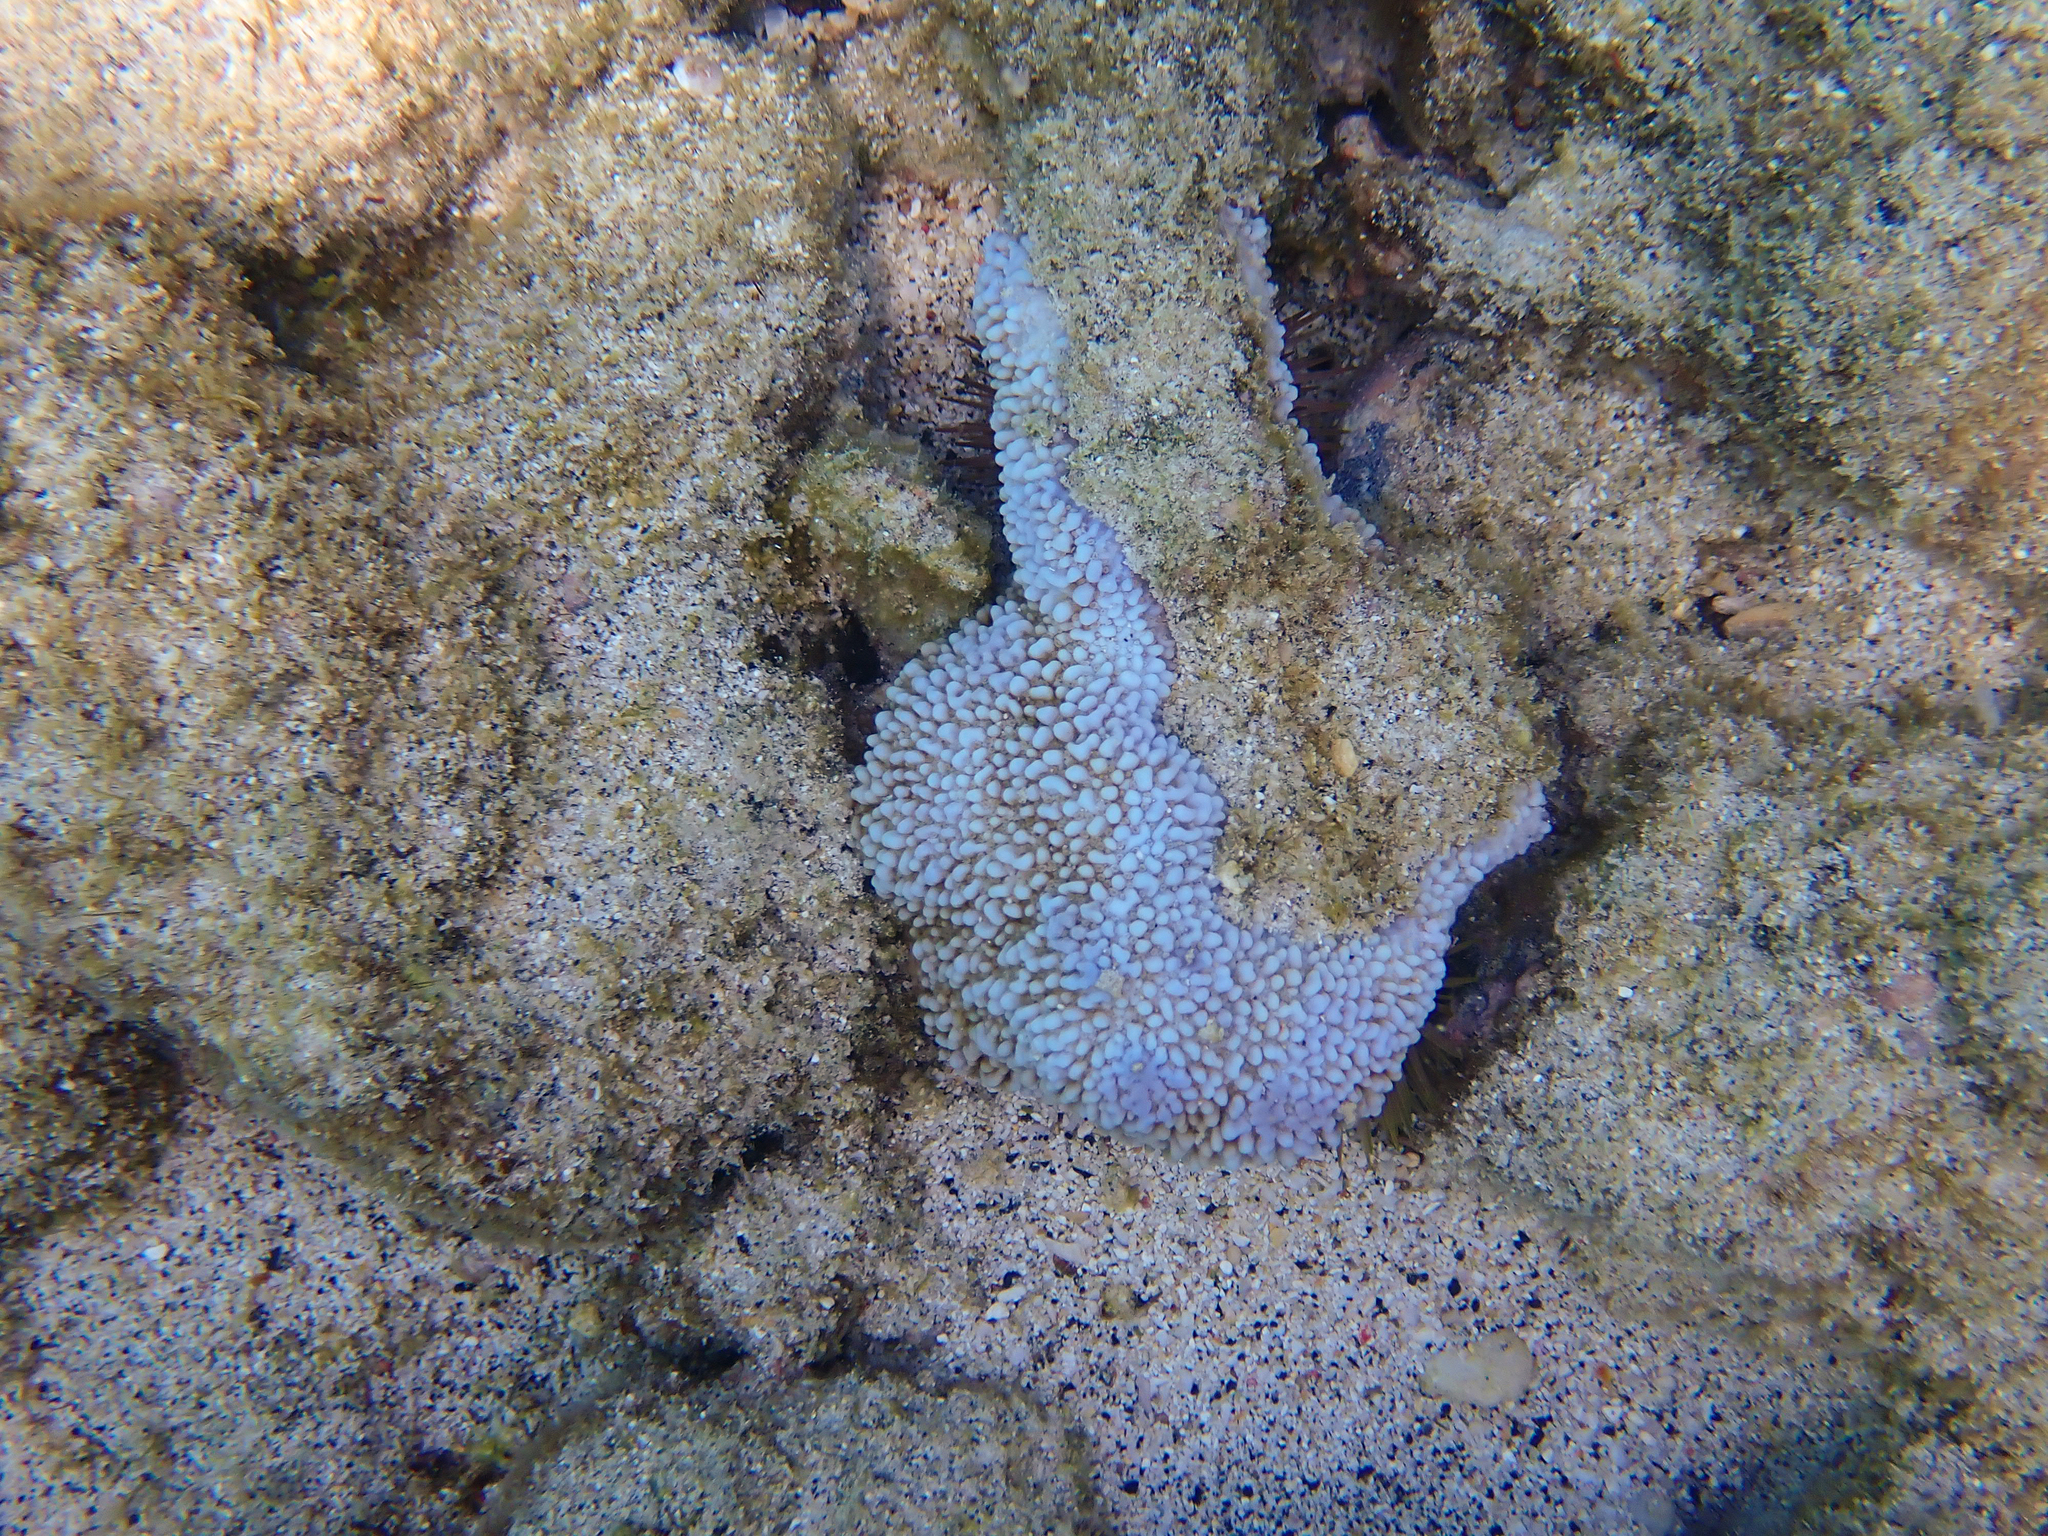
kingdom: Animalia
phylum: Cnidaria
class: Anthozoa
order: Scleractinia
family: Acroporidae
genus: Montipora
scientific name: Montipora capitata
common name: Pore coral
